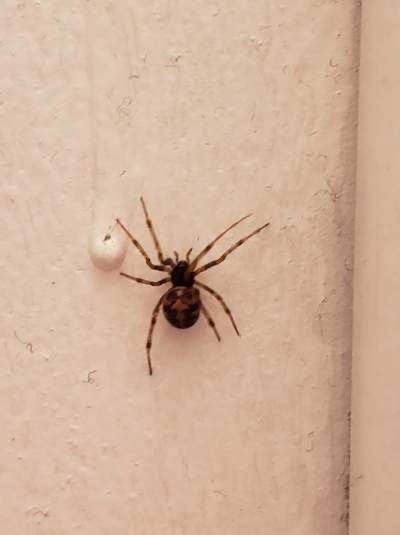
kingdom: Animalia
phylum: Arthropoda
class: Arachnida
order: Araneae
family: Theridiidae
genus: Steatoda
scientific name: Steatoda triangulosa
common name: Triangulate bud spider
